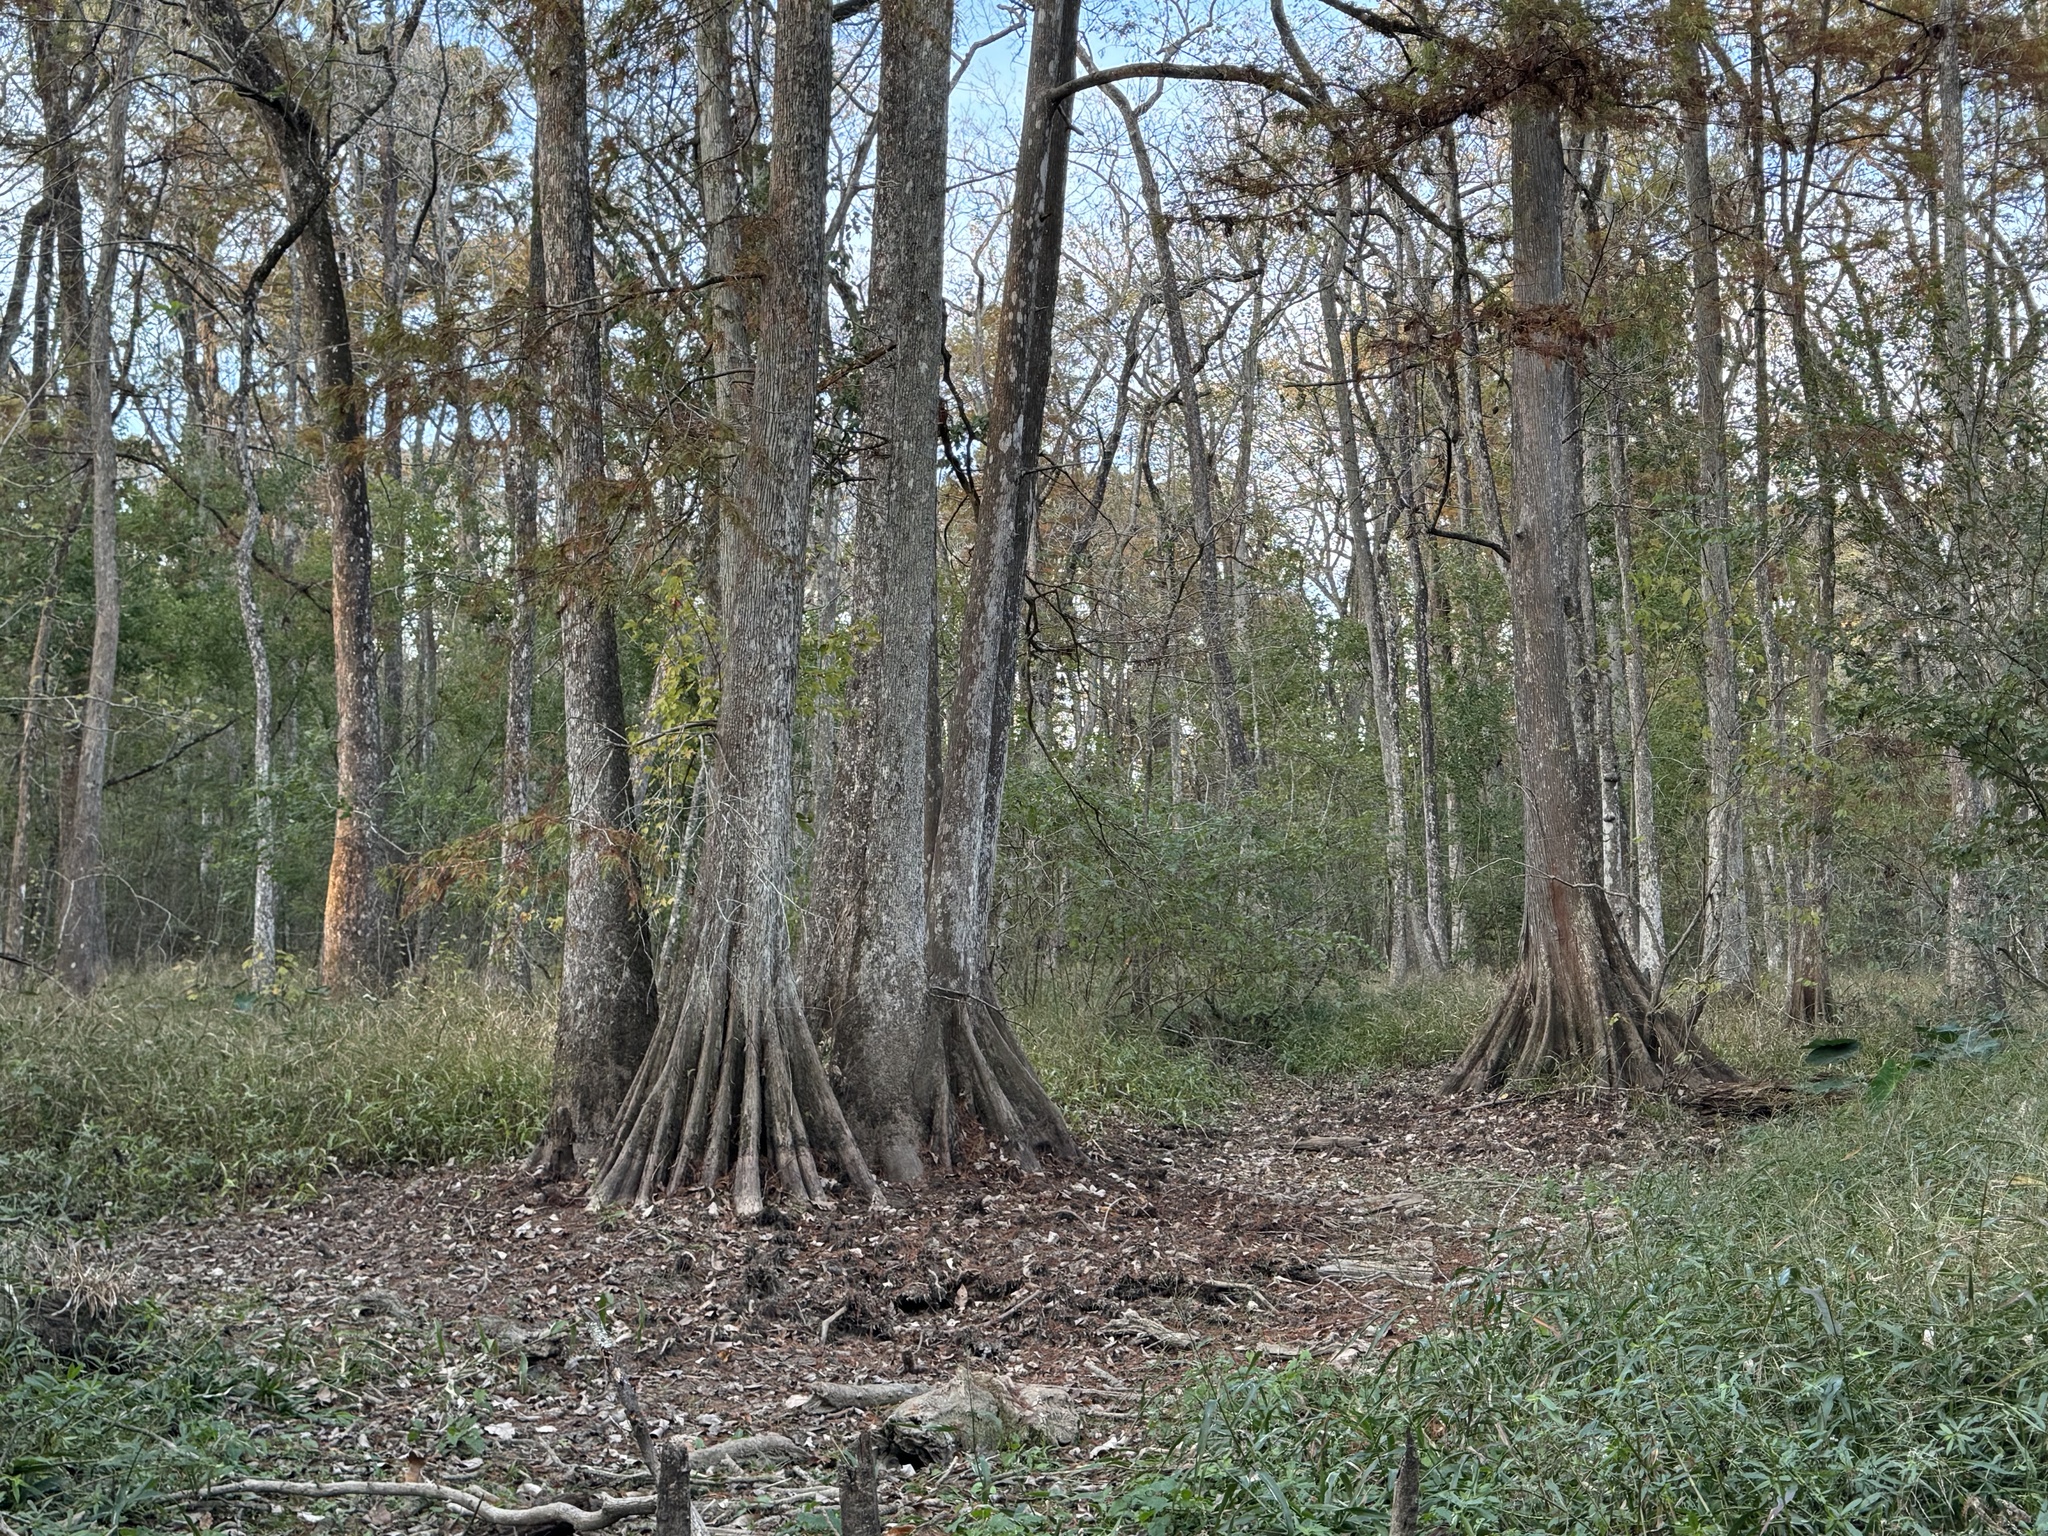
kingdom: Plantae
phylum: Tracheophyta
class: Pinopsida
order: Pinales
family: Cupressaceae
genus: Taxodium
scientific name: Taxodium distichum
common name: Bald cypress
